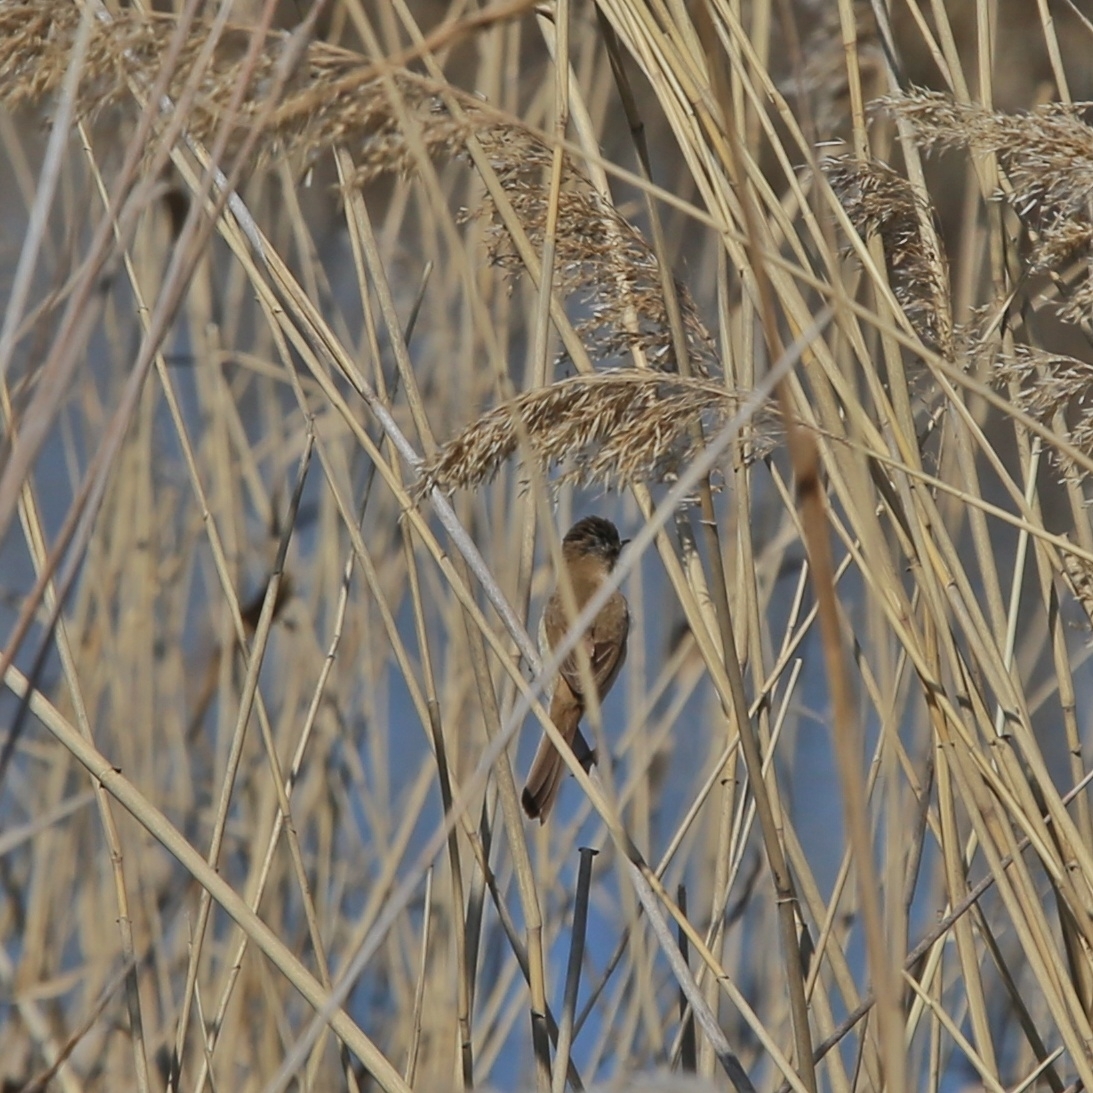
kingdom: Animalia
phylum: Chordata
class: Aves
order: Passeriformes
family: Acrocephalidae
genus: Acrocephalus
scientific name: Acrocephalus agricola
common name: Paddyfield warbler
